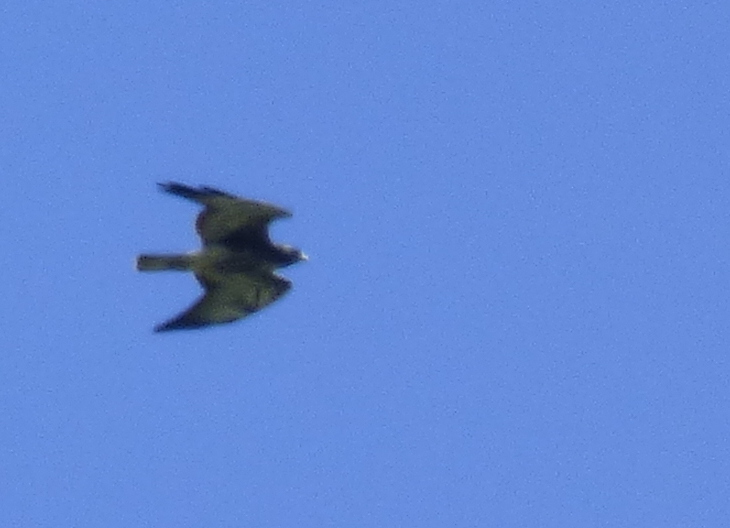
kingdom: Animalia
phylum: Chordata
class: Aves
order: Accipitriformes
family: Accipitridae
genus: Buteo
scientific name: Buteo albicaudatus
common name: White-tailed hawk
